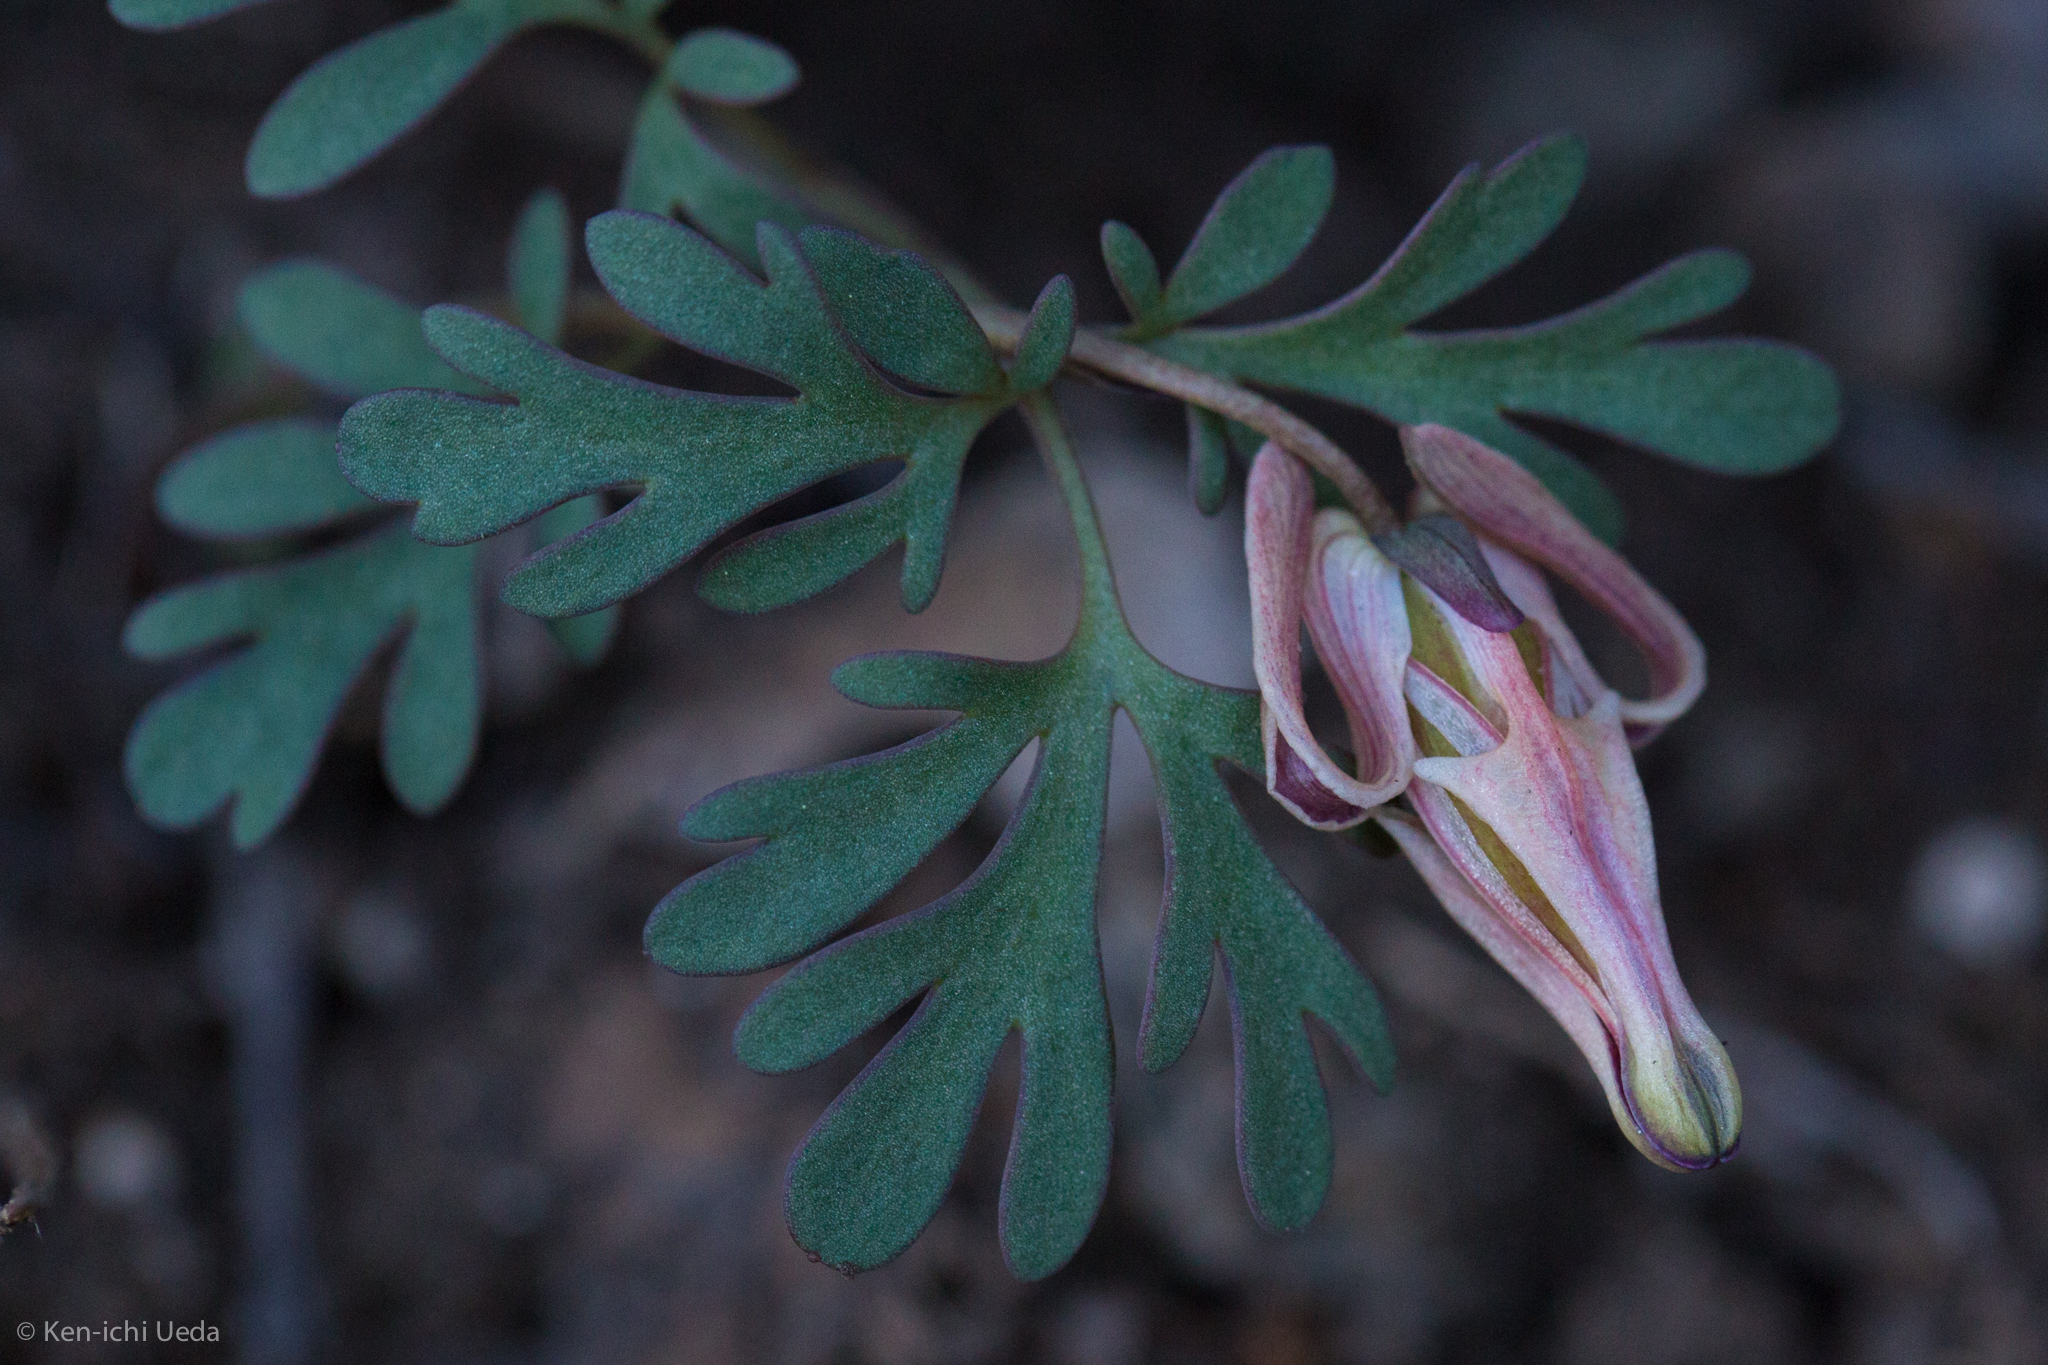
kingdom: Plantae
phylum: Tracheophyta
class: Magnoliopsida
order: Ranunculales
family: Papaveraceae
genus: Dicentra
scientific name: Dicentra uniflora
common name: Steer's-head
